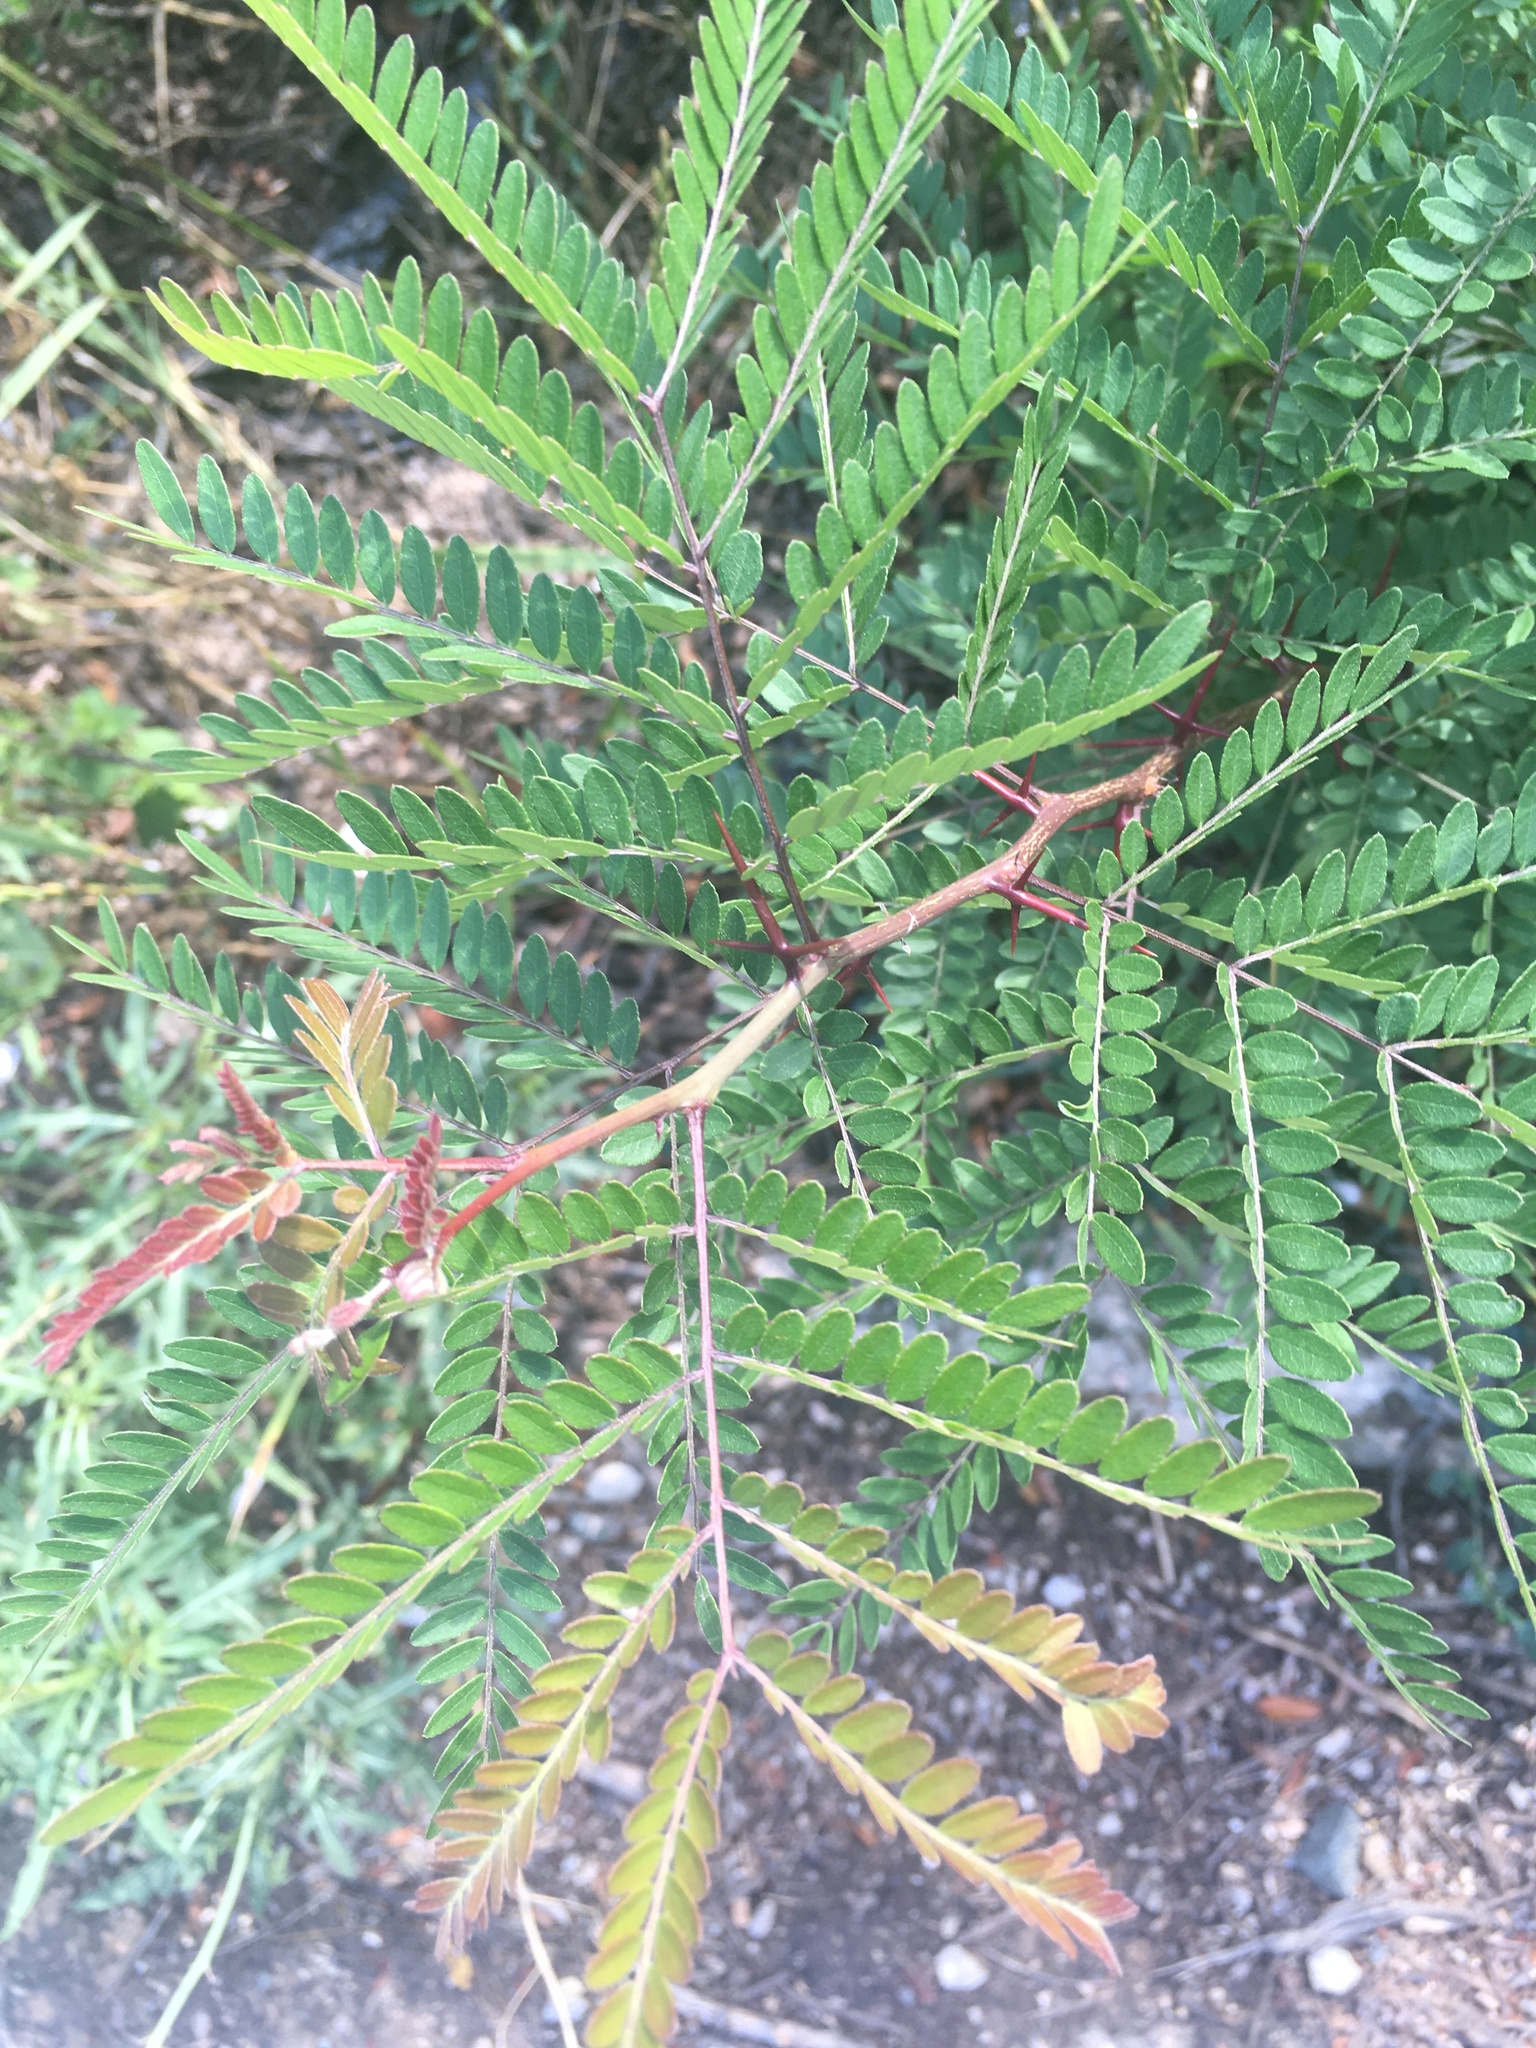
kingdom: Plantae
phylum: Tracheophyta
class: Magnoliopsida
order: Fabales
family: Fabaceae
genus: Gleditsia
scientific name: Gleditsia triacanthos
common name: Common honeylocust
